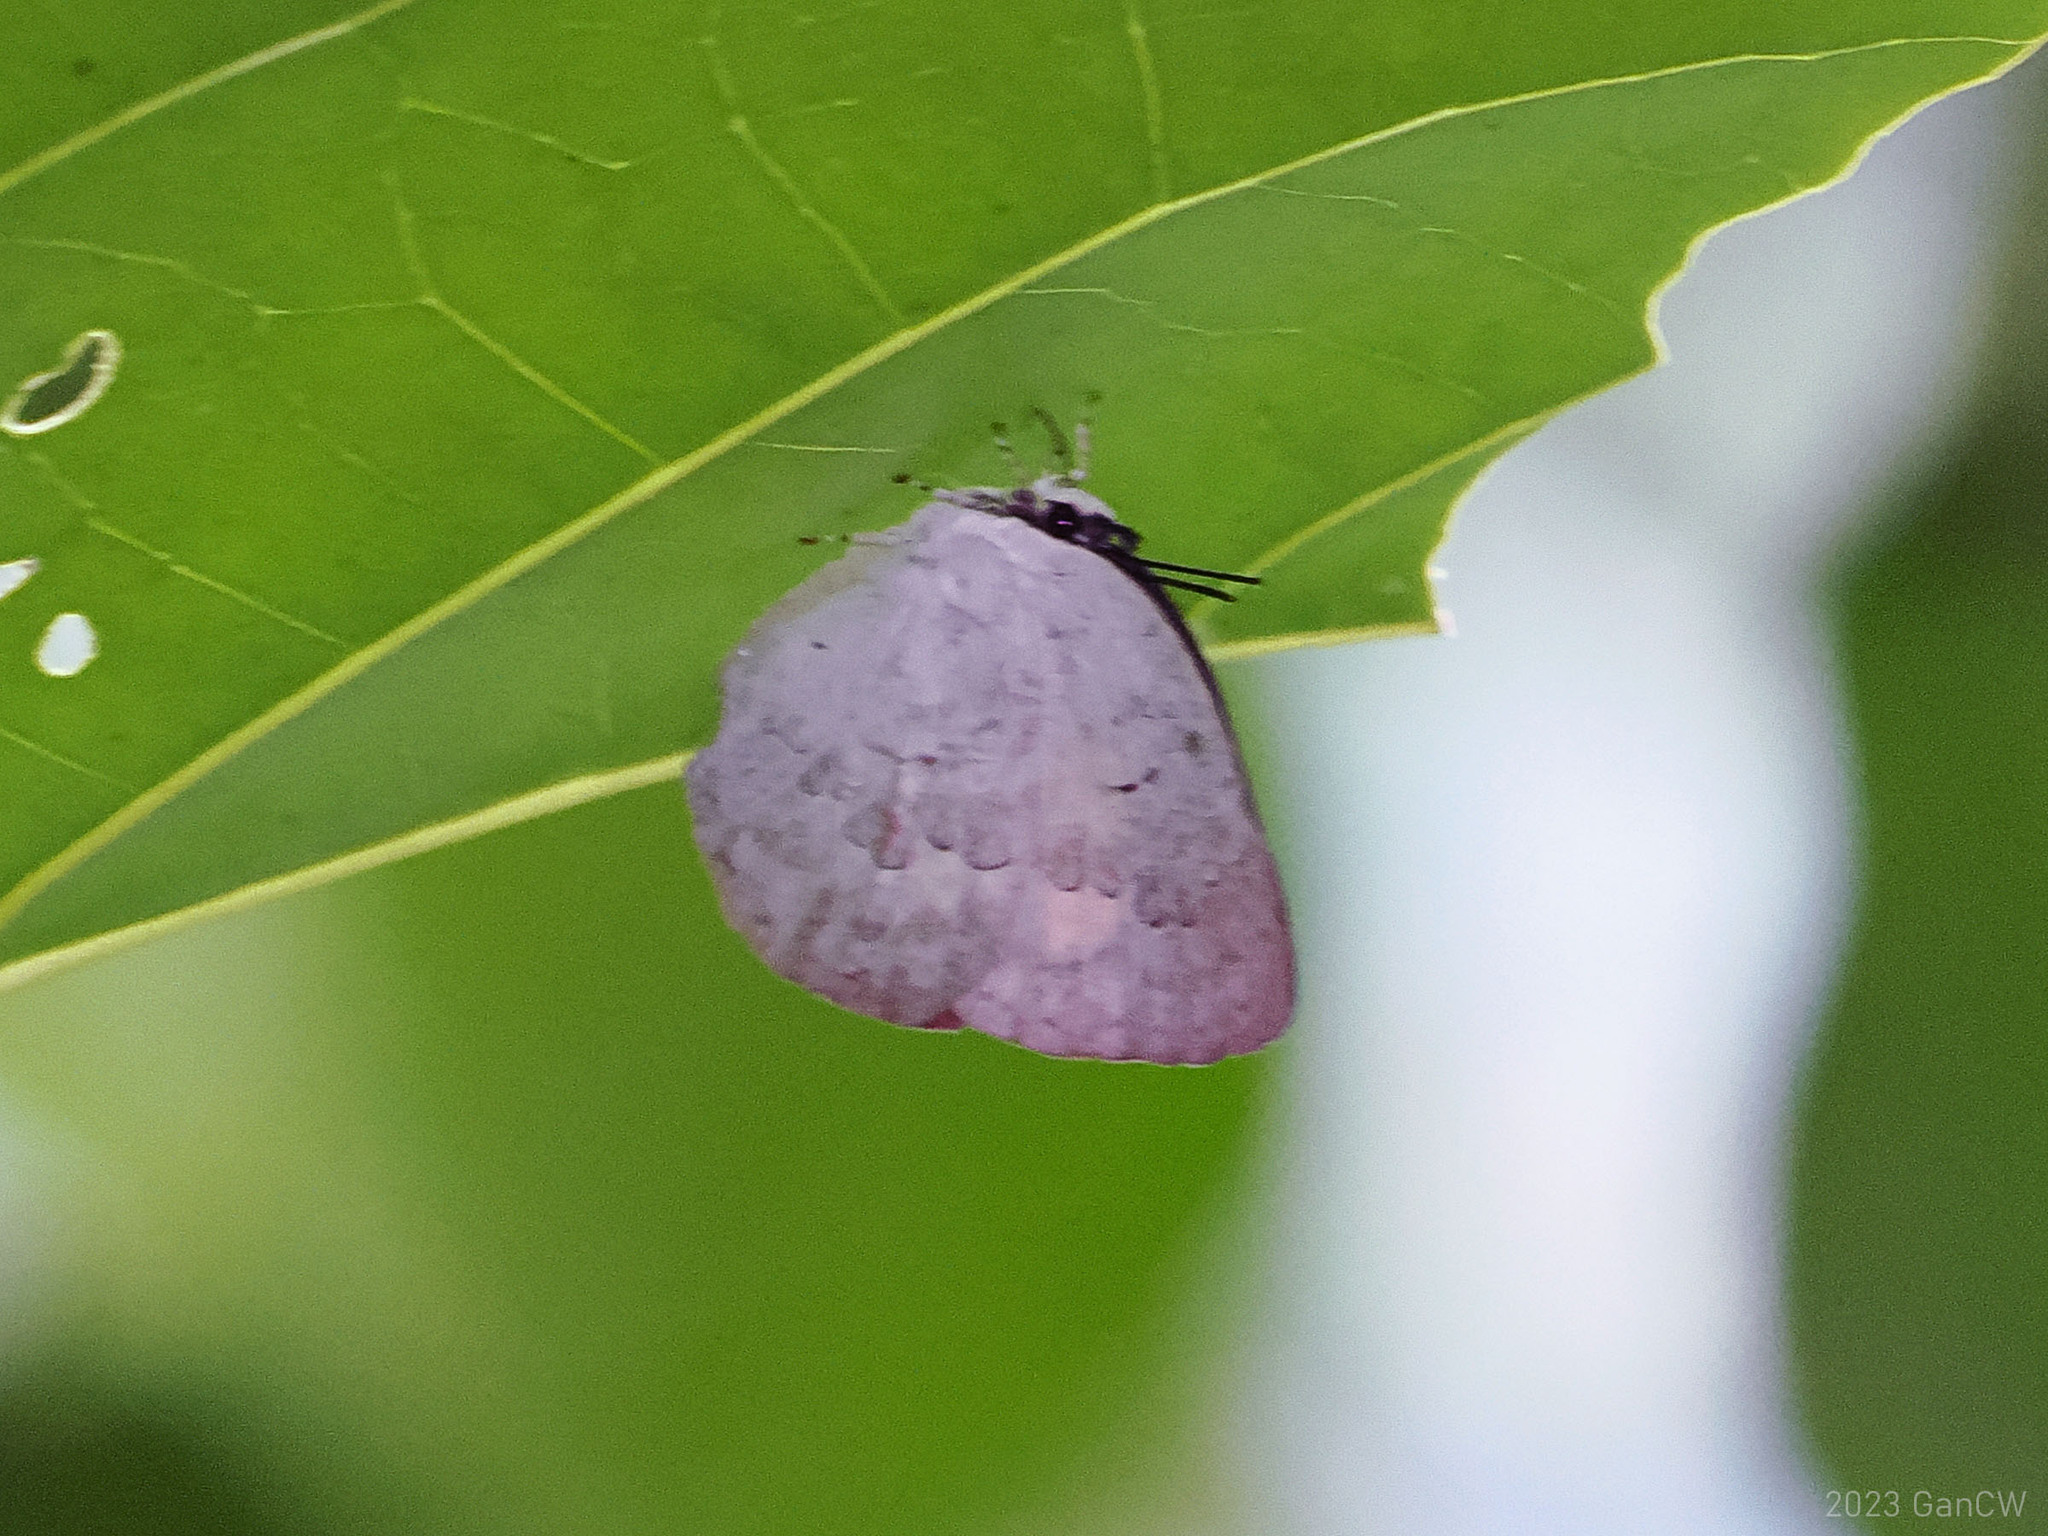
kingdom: Animalia
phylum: Arthropoda
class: Insecta
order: Lepidoptera
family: Lycaenidae
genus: Curetis
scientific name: Curetis tagalica
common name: Southern sunbeam
